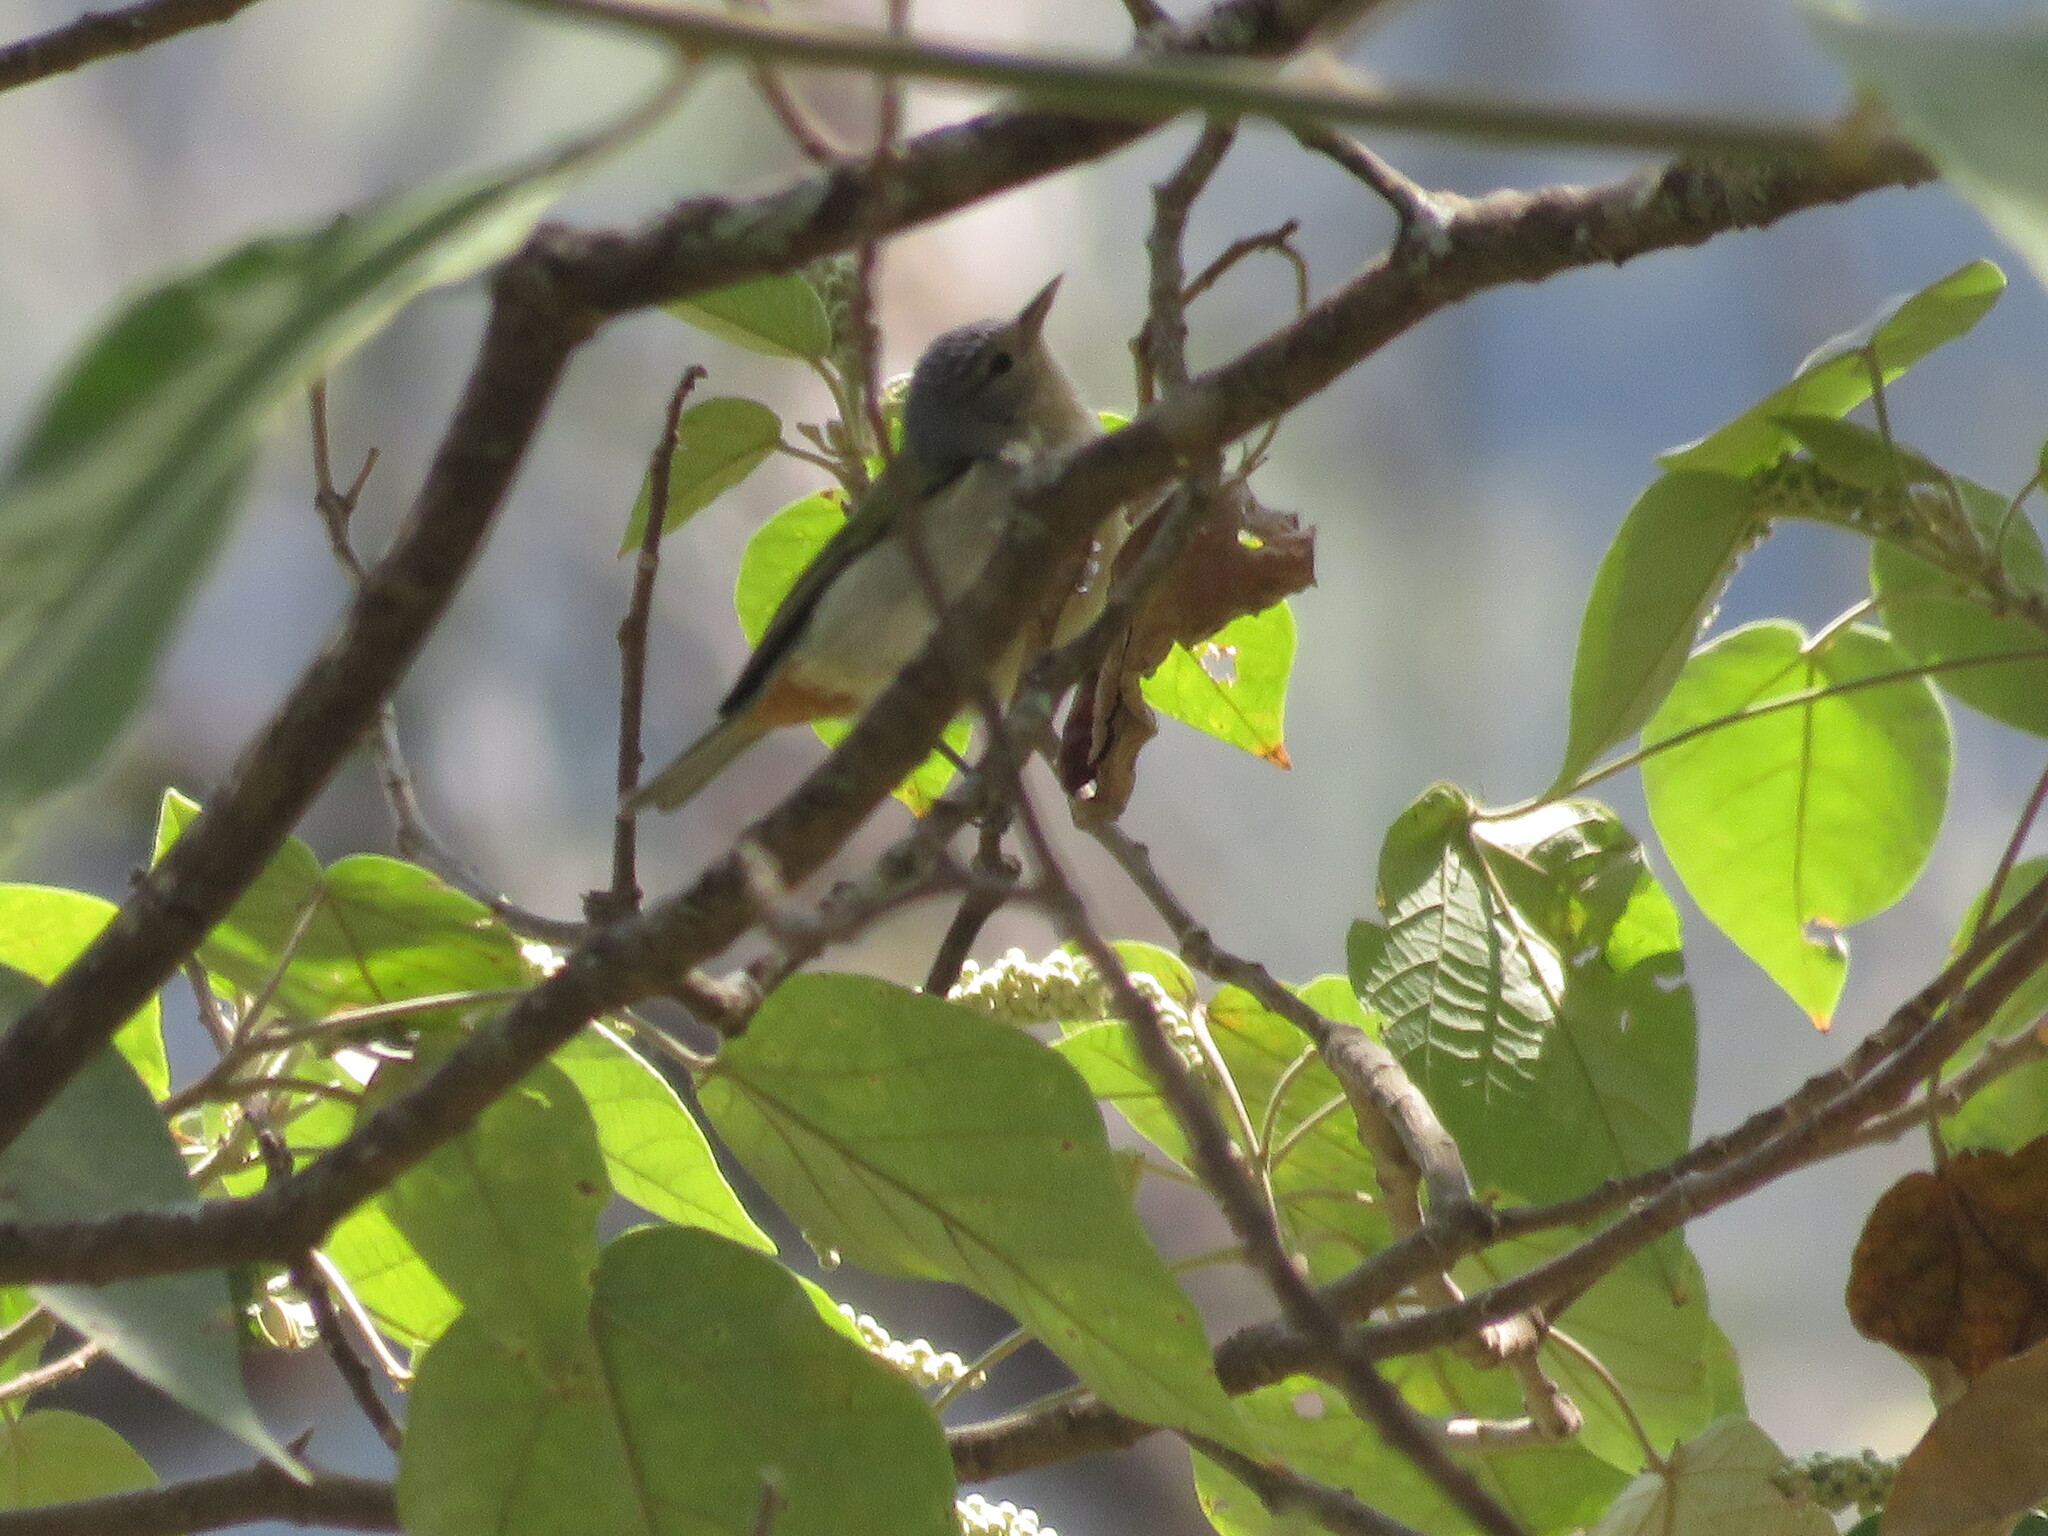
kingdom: Animalia
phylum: Chordata
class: Aves
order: Passeriformes
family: Thraupidae
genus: Conirostrum
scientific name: Conirostrum speciosum
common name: Chestnut-vented conebill
